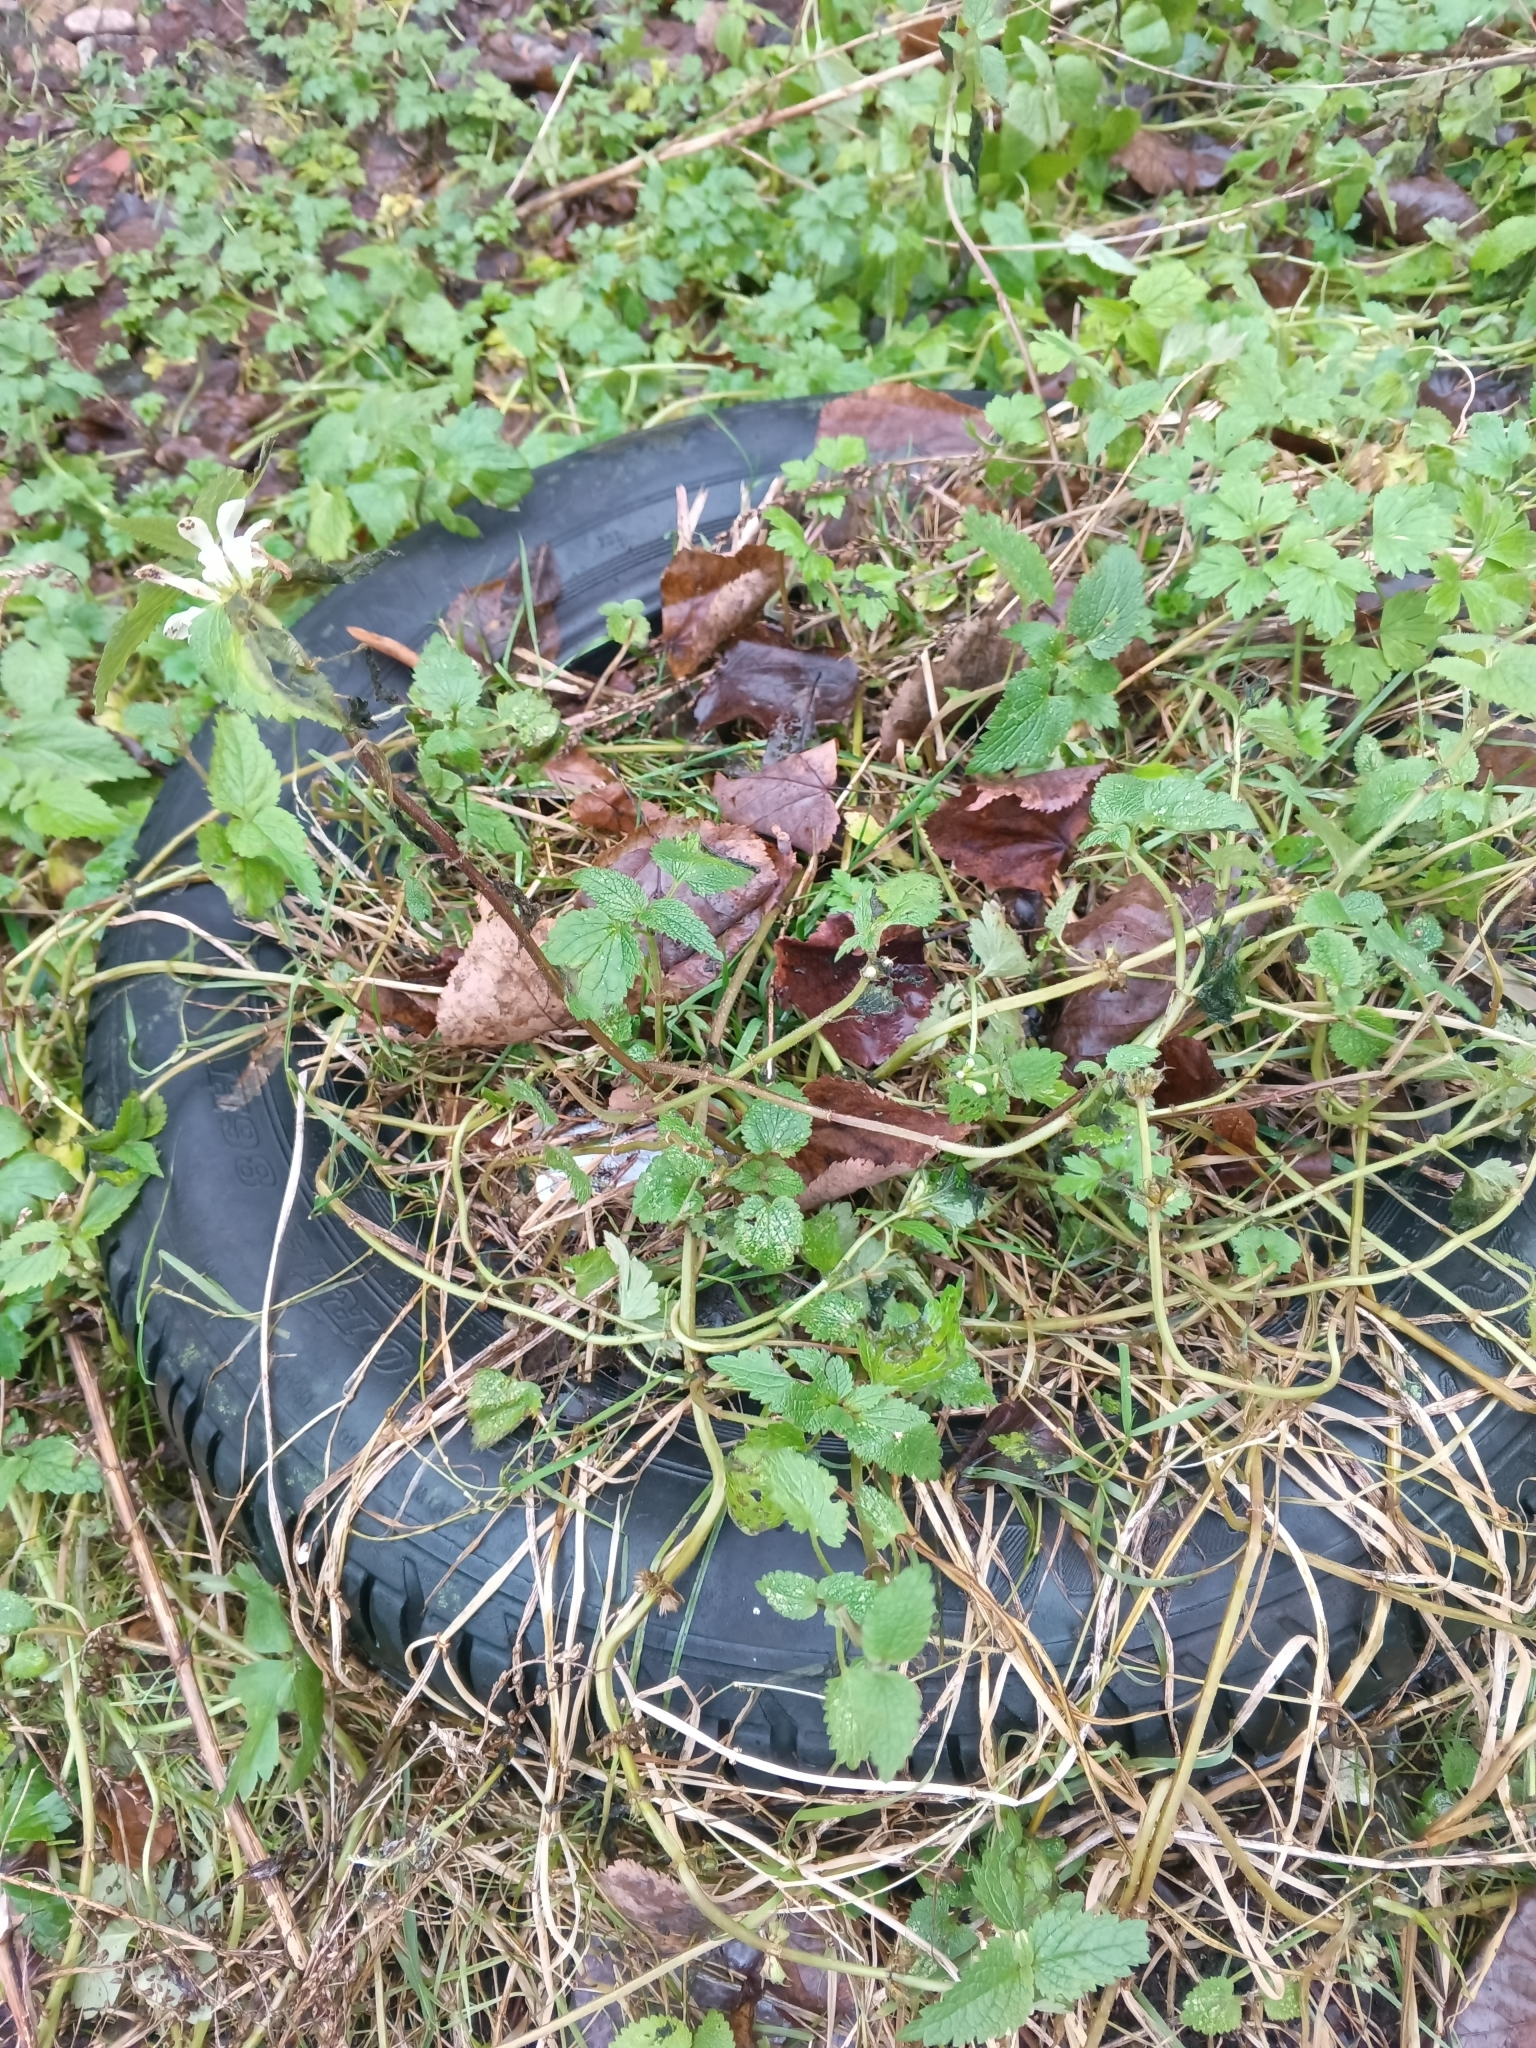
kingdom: Plantae
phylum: Tracheophyta
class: Magnoliopsida
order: Lamiales
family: Lamiaceae
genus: Lamium
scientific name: Lamium album
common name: White dead-nettle
